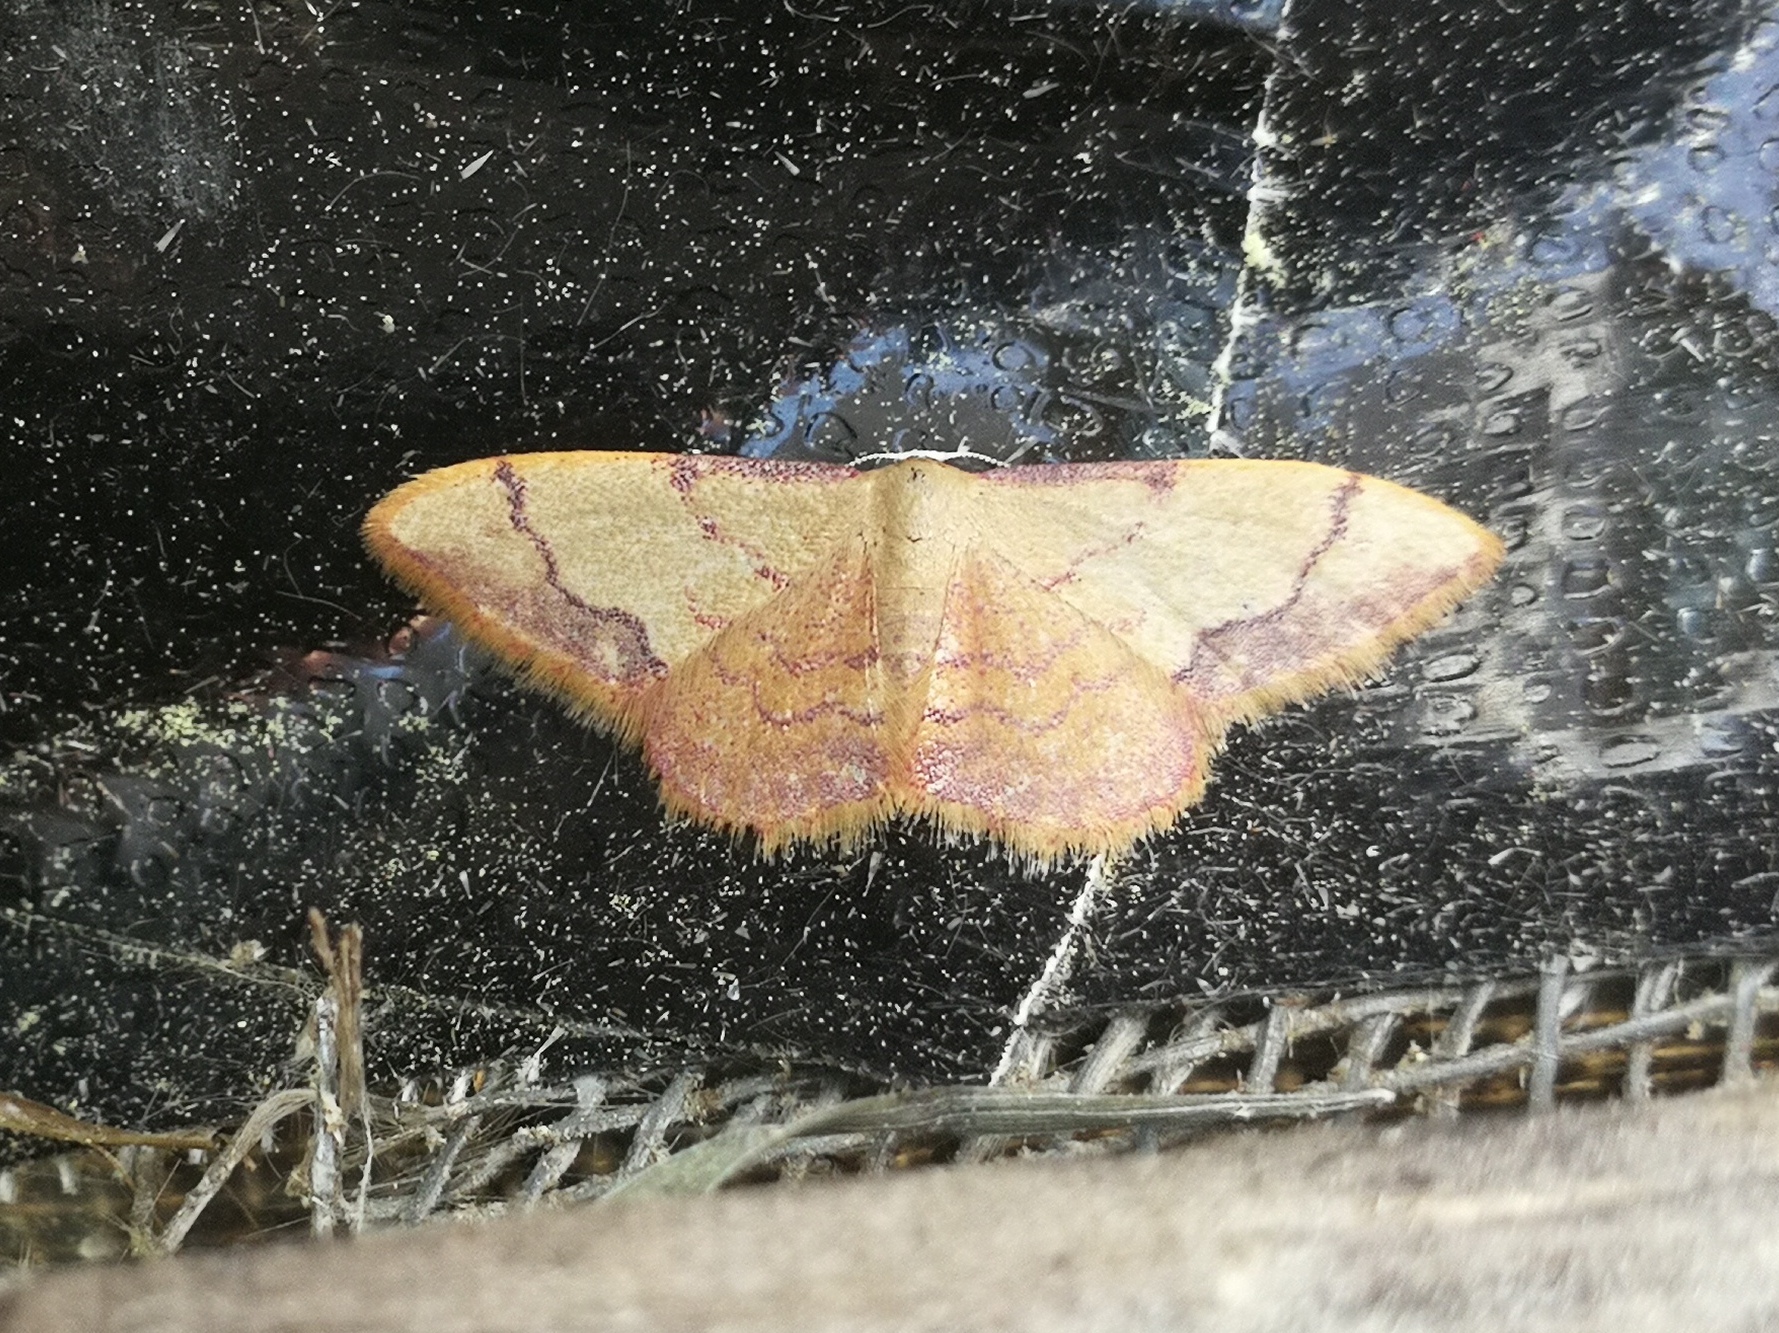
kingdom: Animalia
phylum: Arthropoda
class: Insecta
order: Lepidoptera
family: Geometridae
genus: Idaea
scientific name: Idaea ostrinaria
